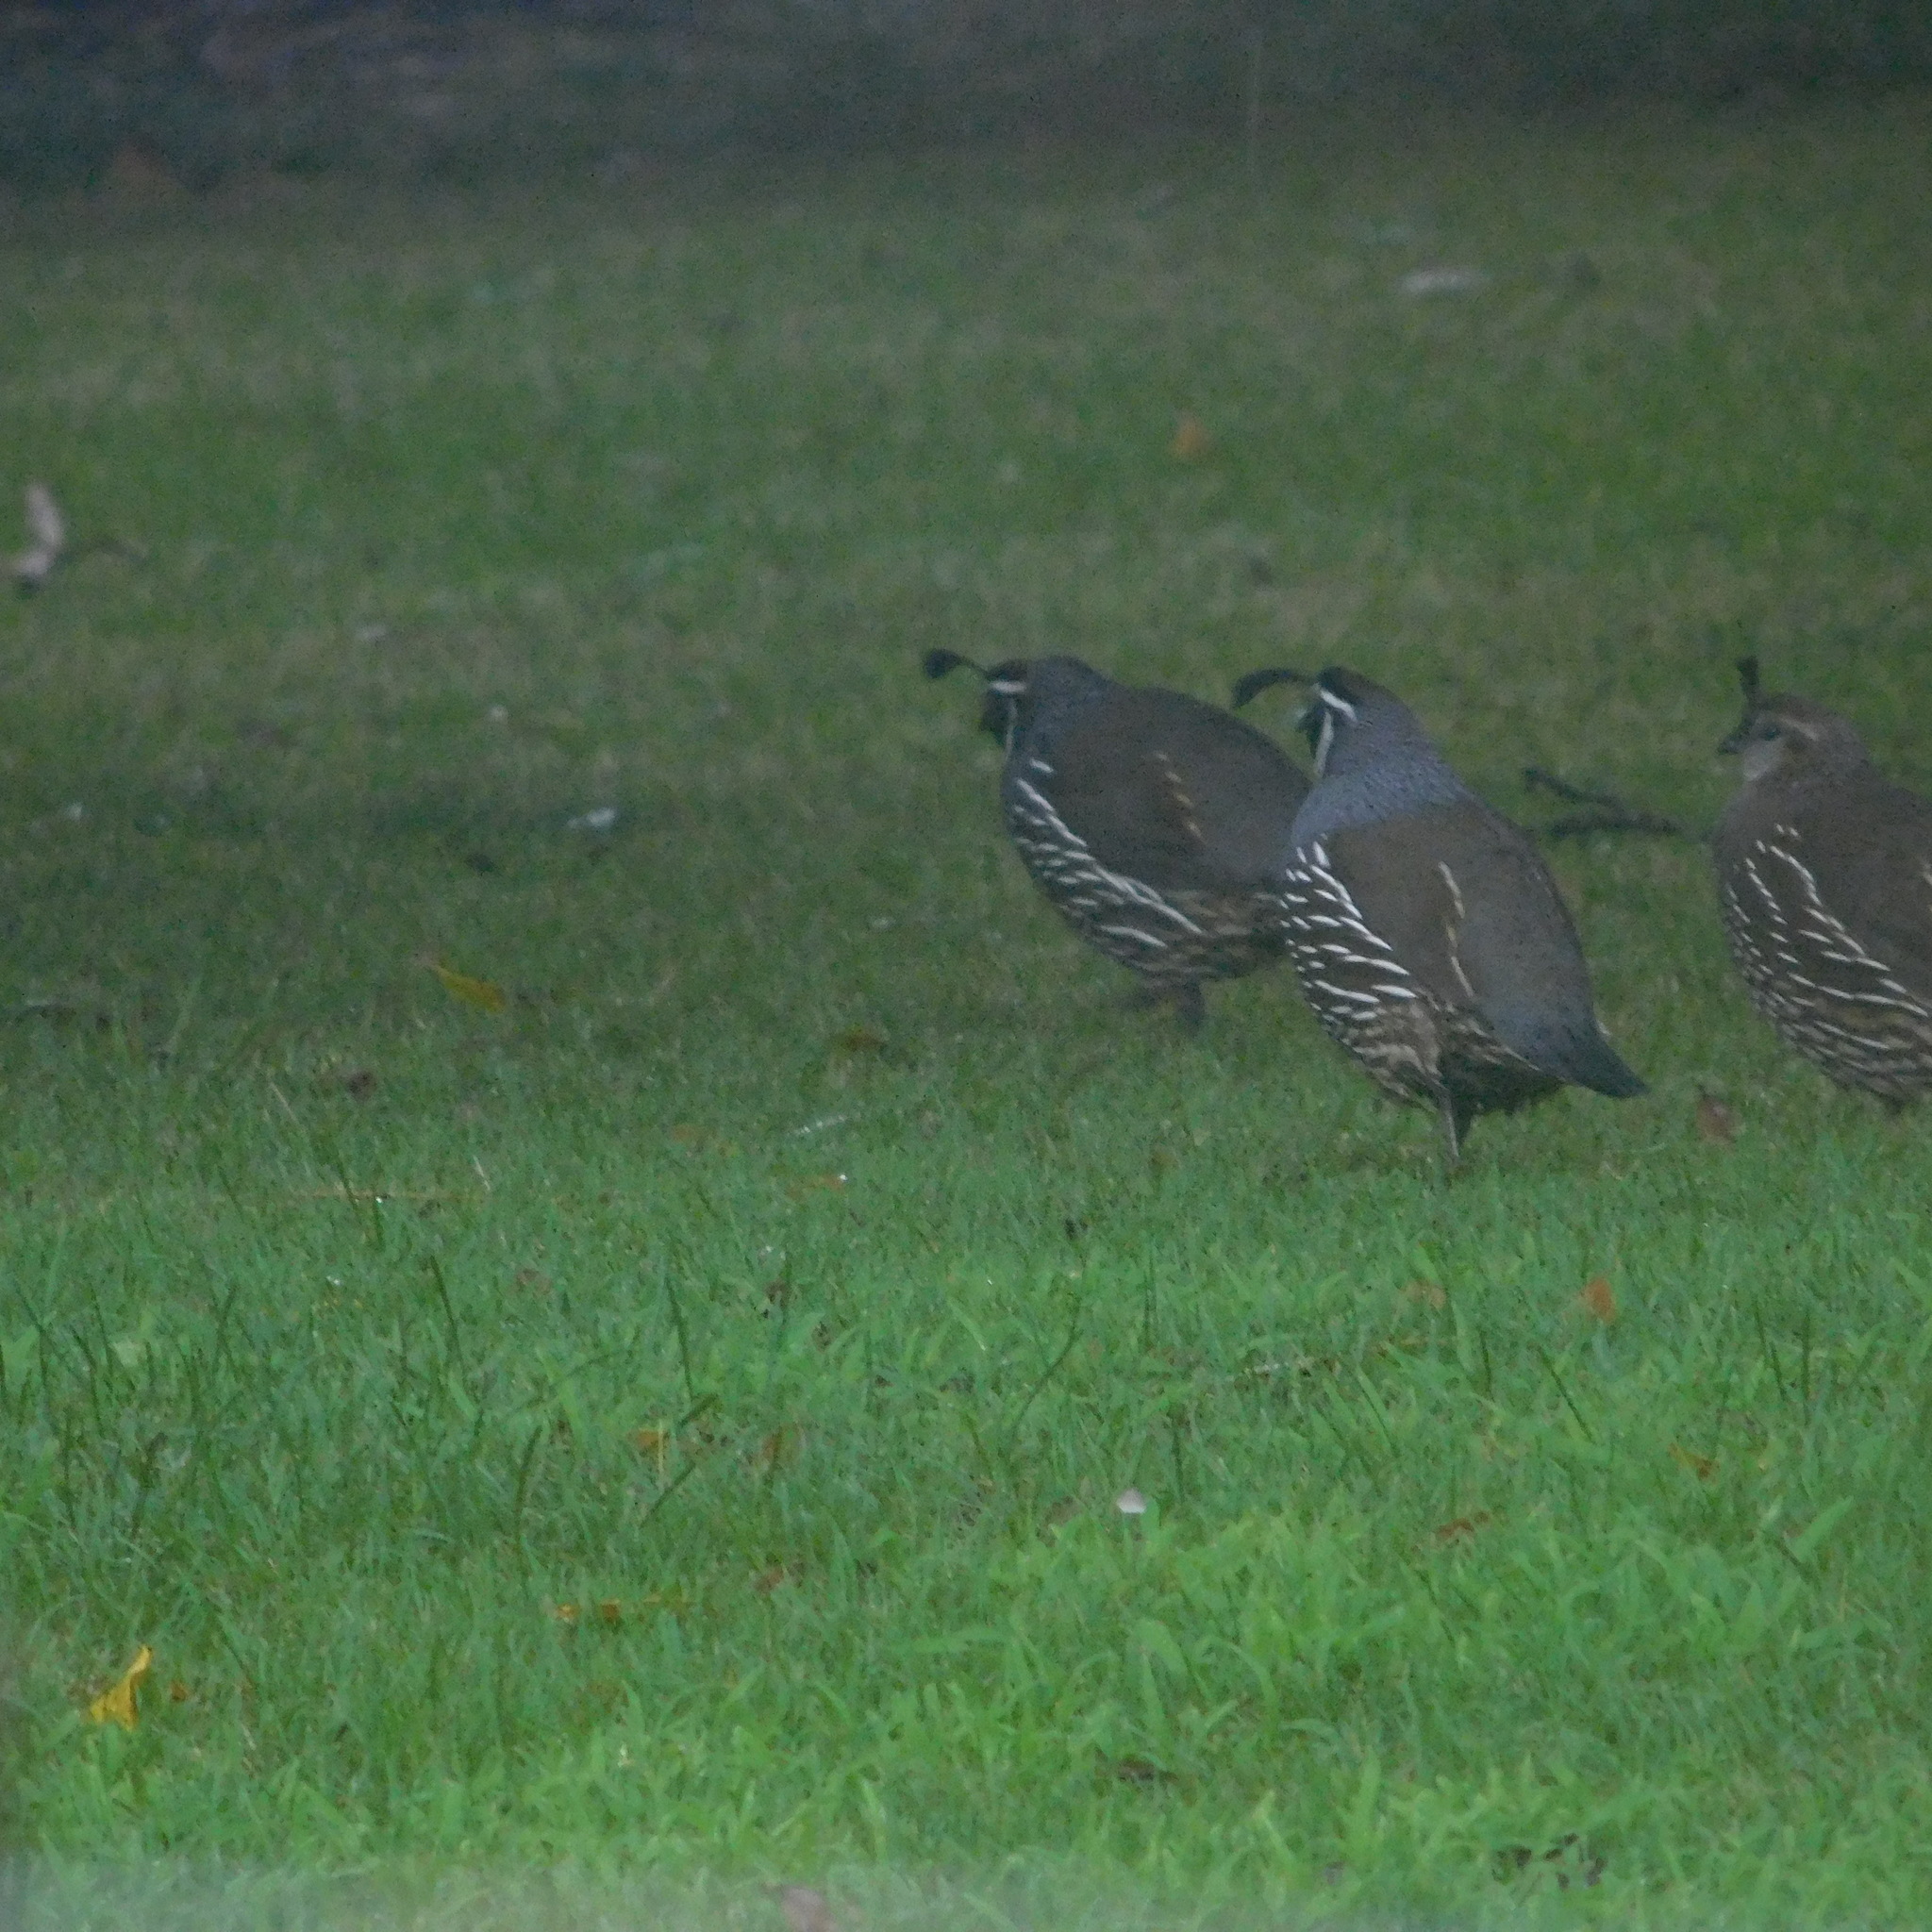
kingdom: Animalia
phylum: Chordata
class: Aves
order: Galliformes
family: Odontophoridae
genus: Callipepla
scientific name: Callipepla californica
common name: California quail
